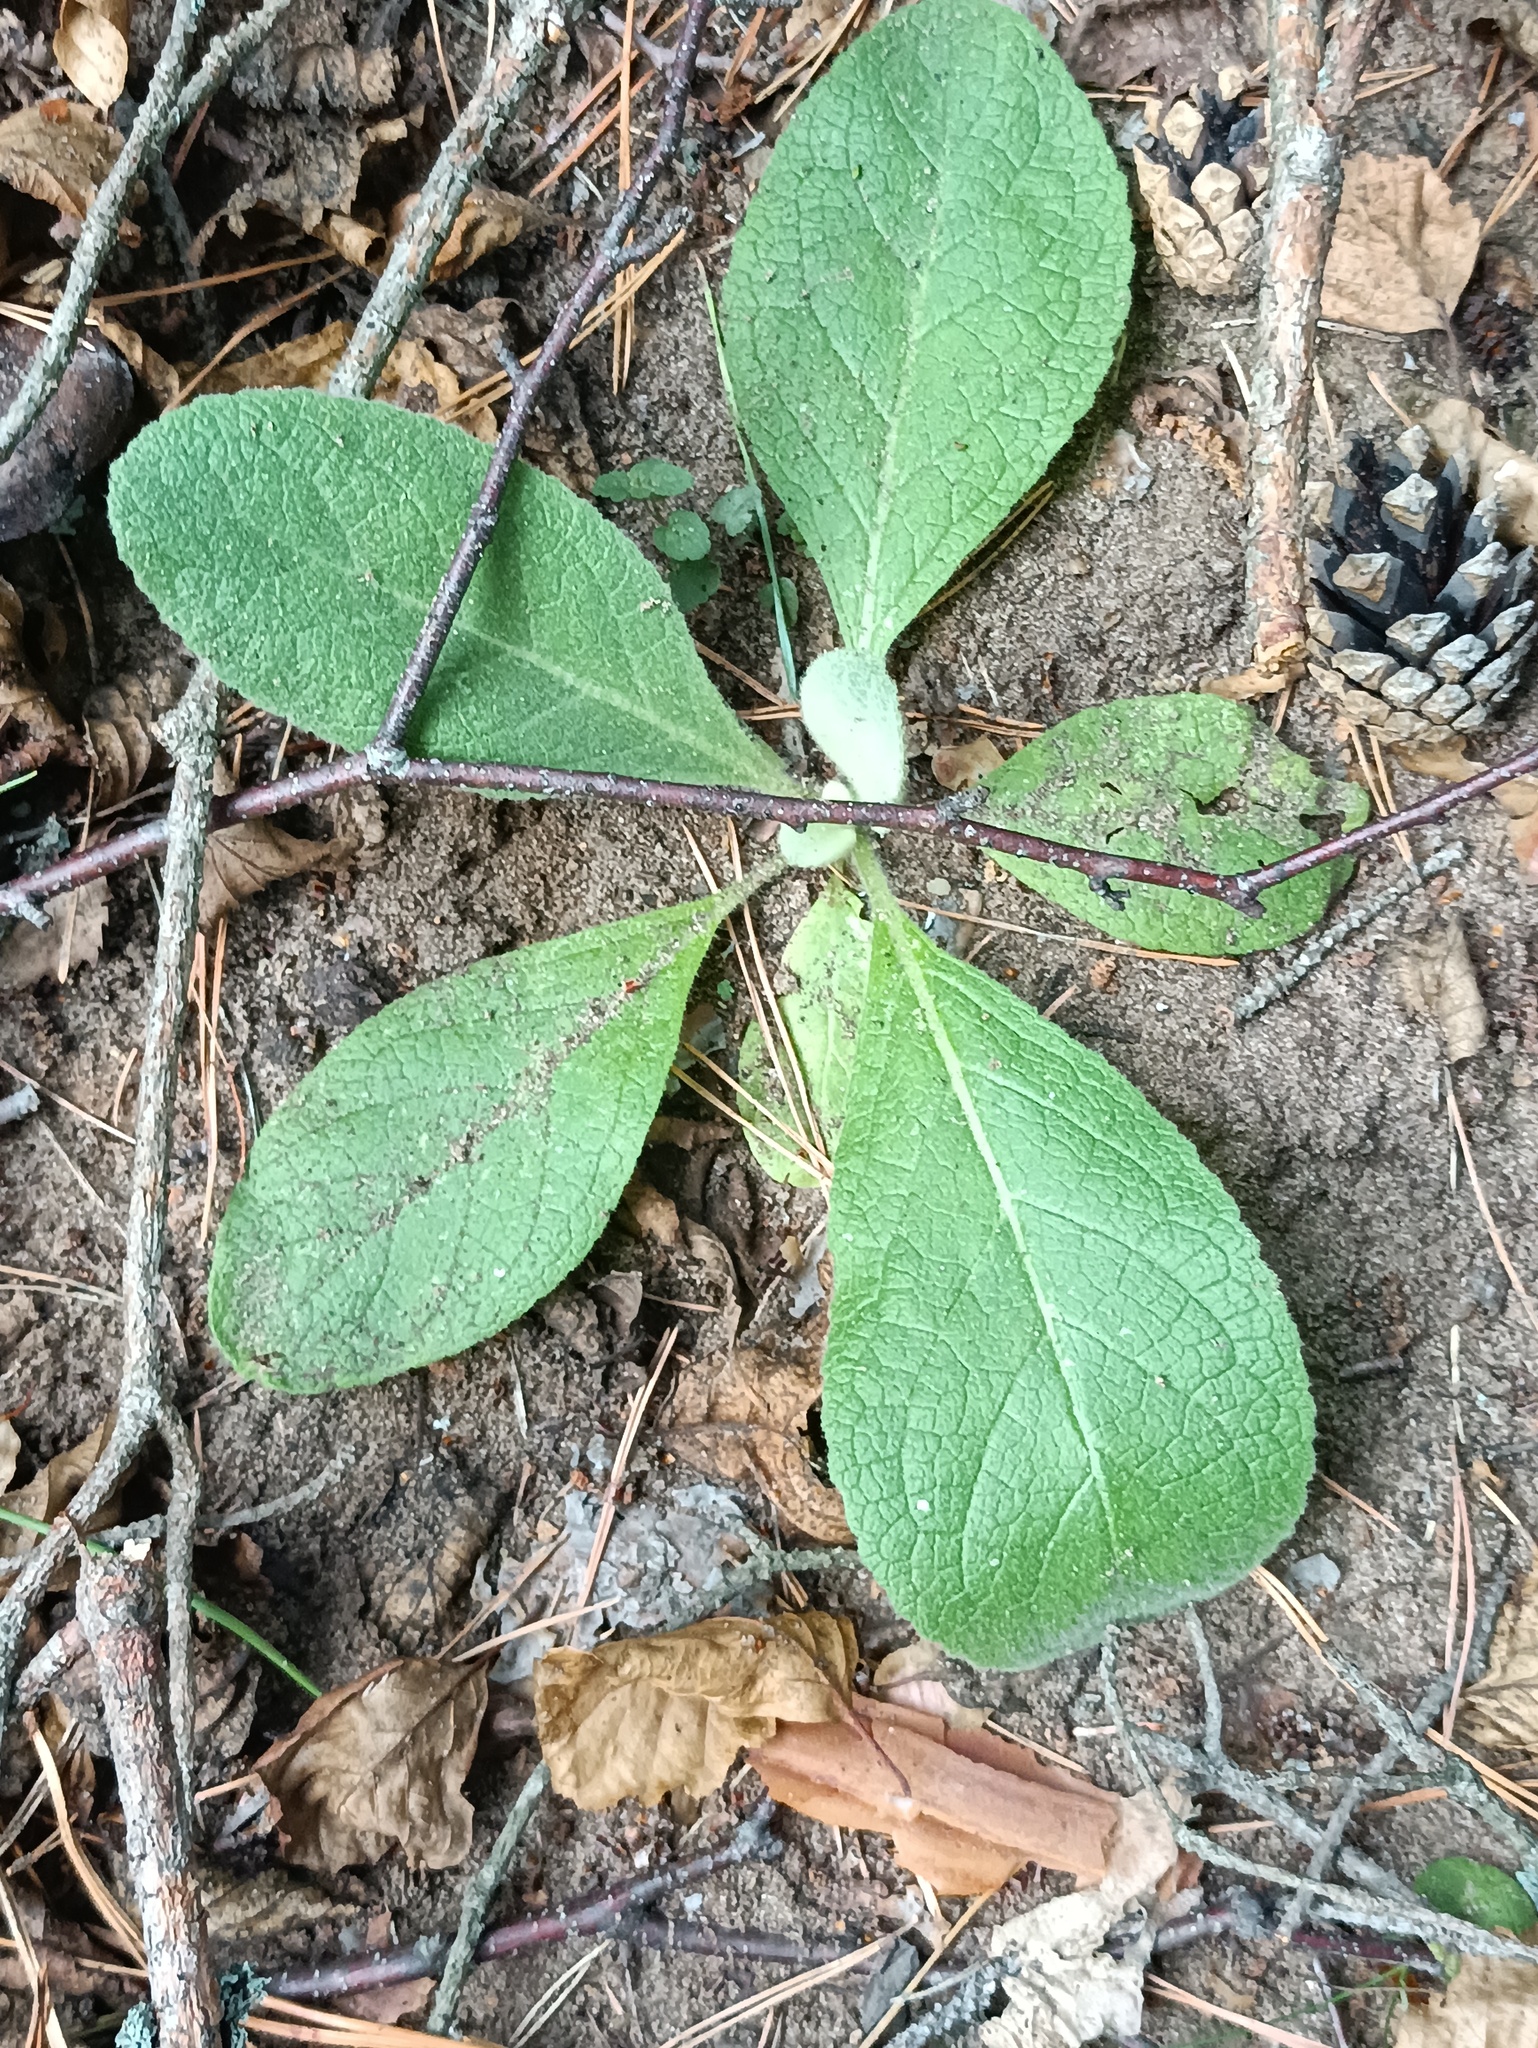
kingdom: Plantae
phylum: Tracheophyta
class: Magnoliopsida
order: Lamiales
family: Scrophulariaceae
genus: Verbascum
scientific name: Verbascum thapsus
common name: Common mullein
